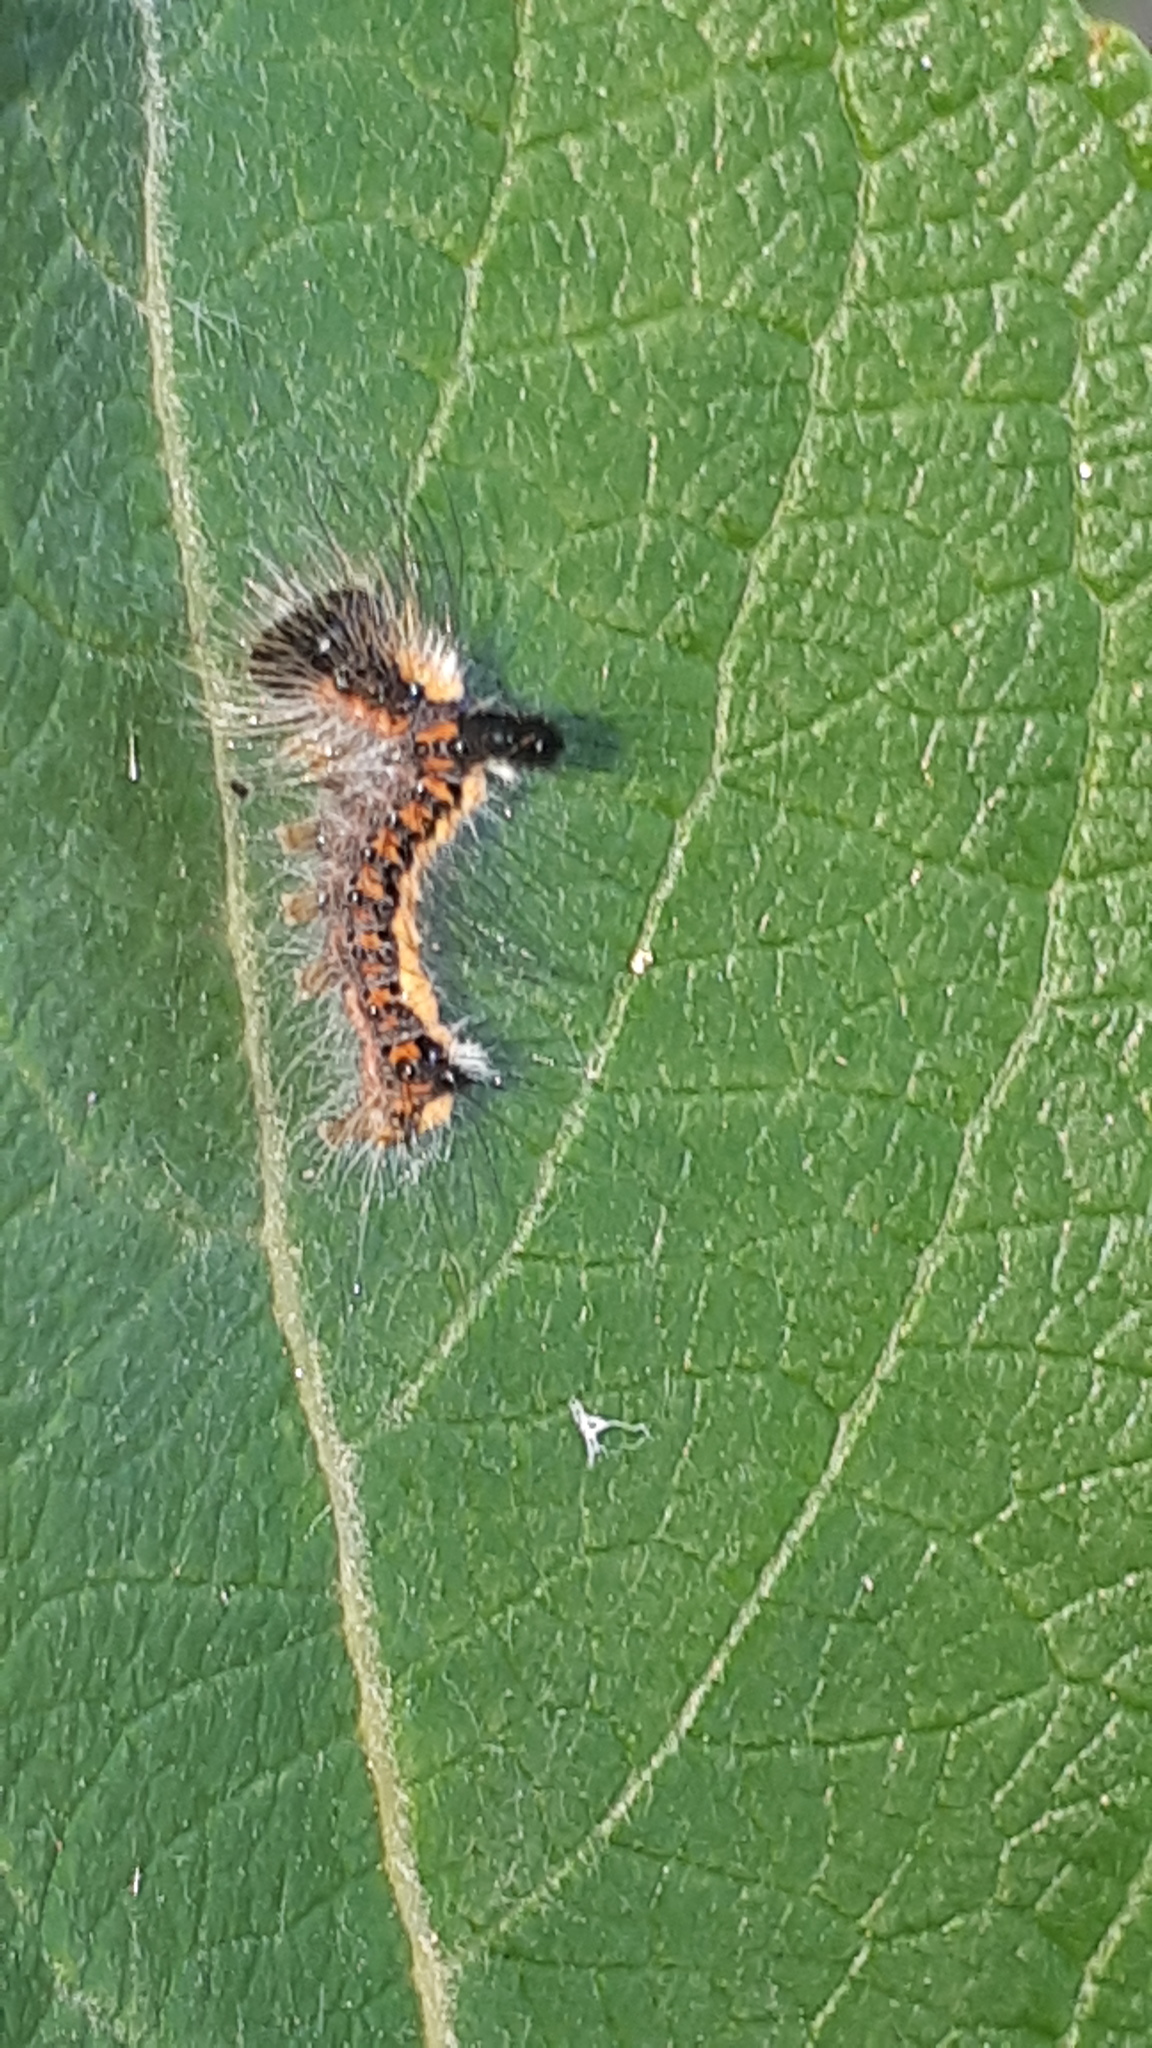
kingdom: Animalia
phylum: Arthropoda
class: Insecta
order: Lepidoptera
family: Noctuidae
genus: Acronicta
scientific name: Acronicta psi
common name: Grey dagger
